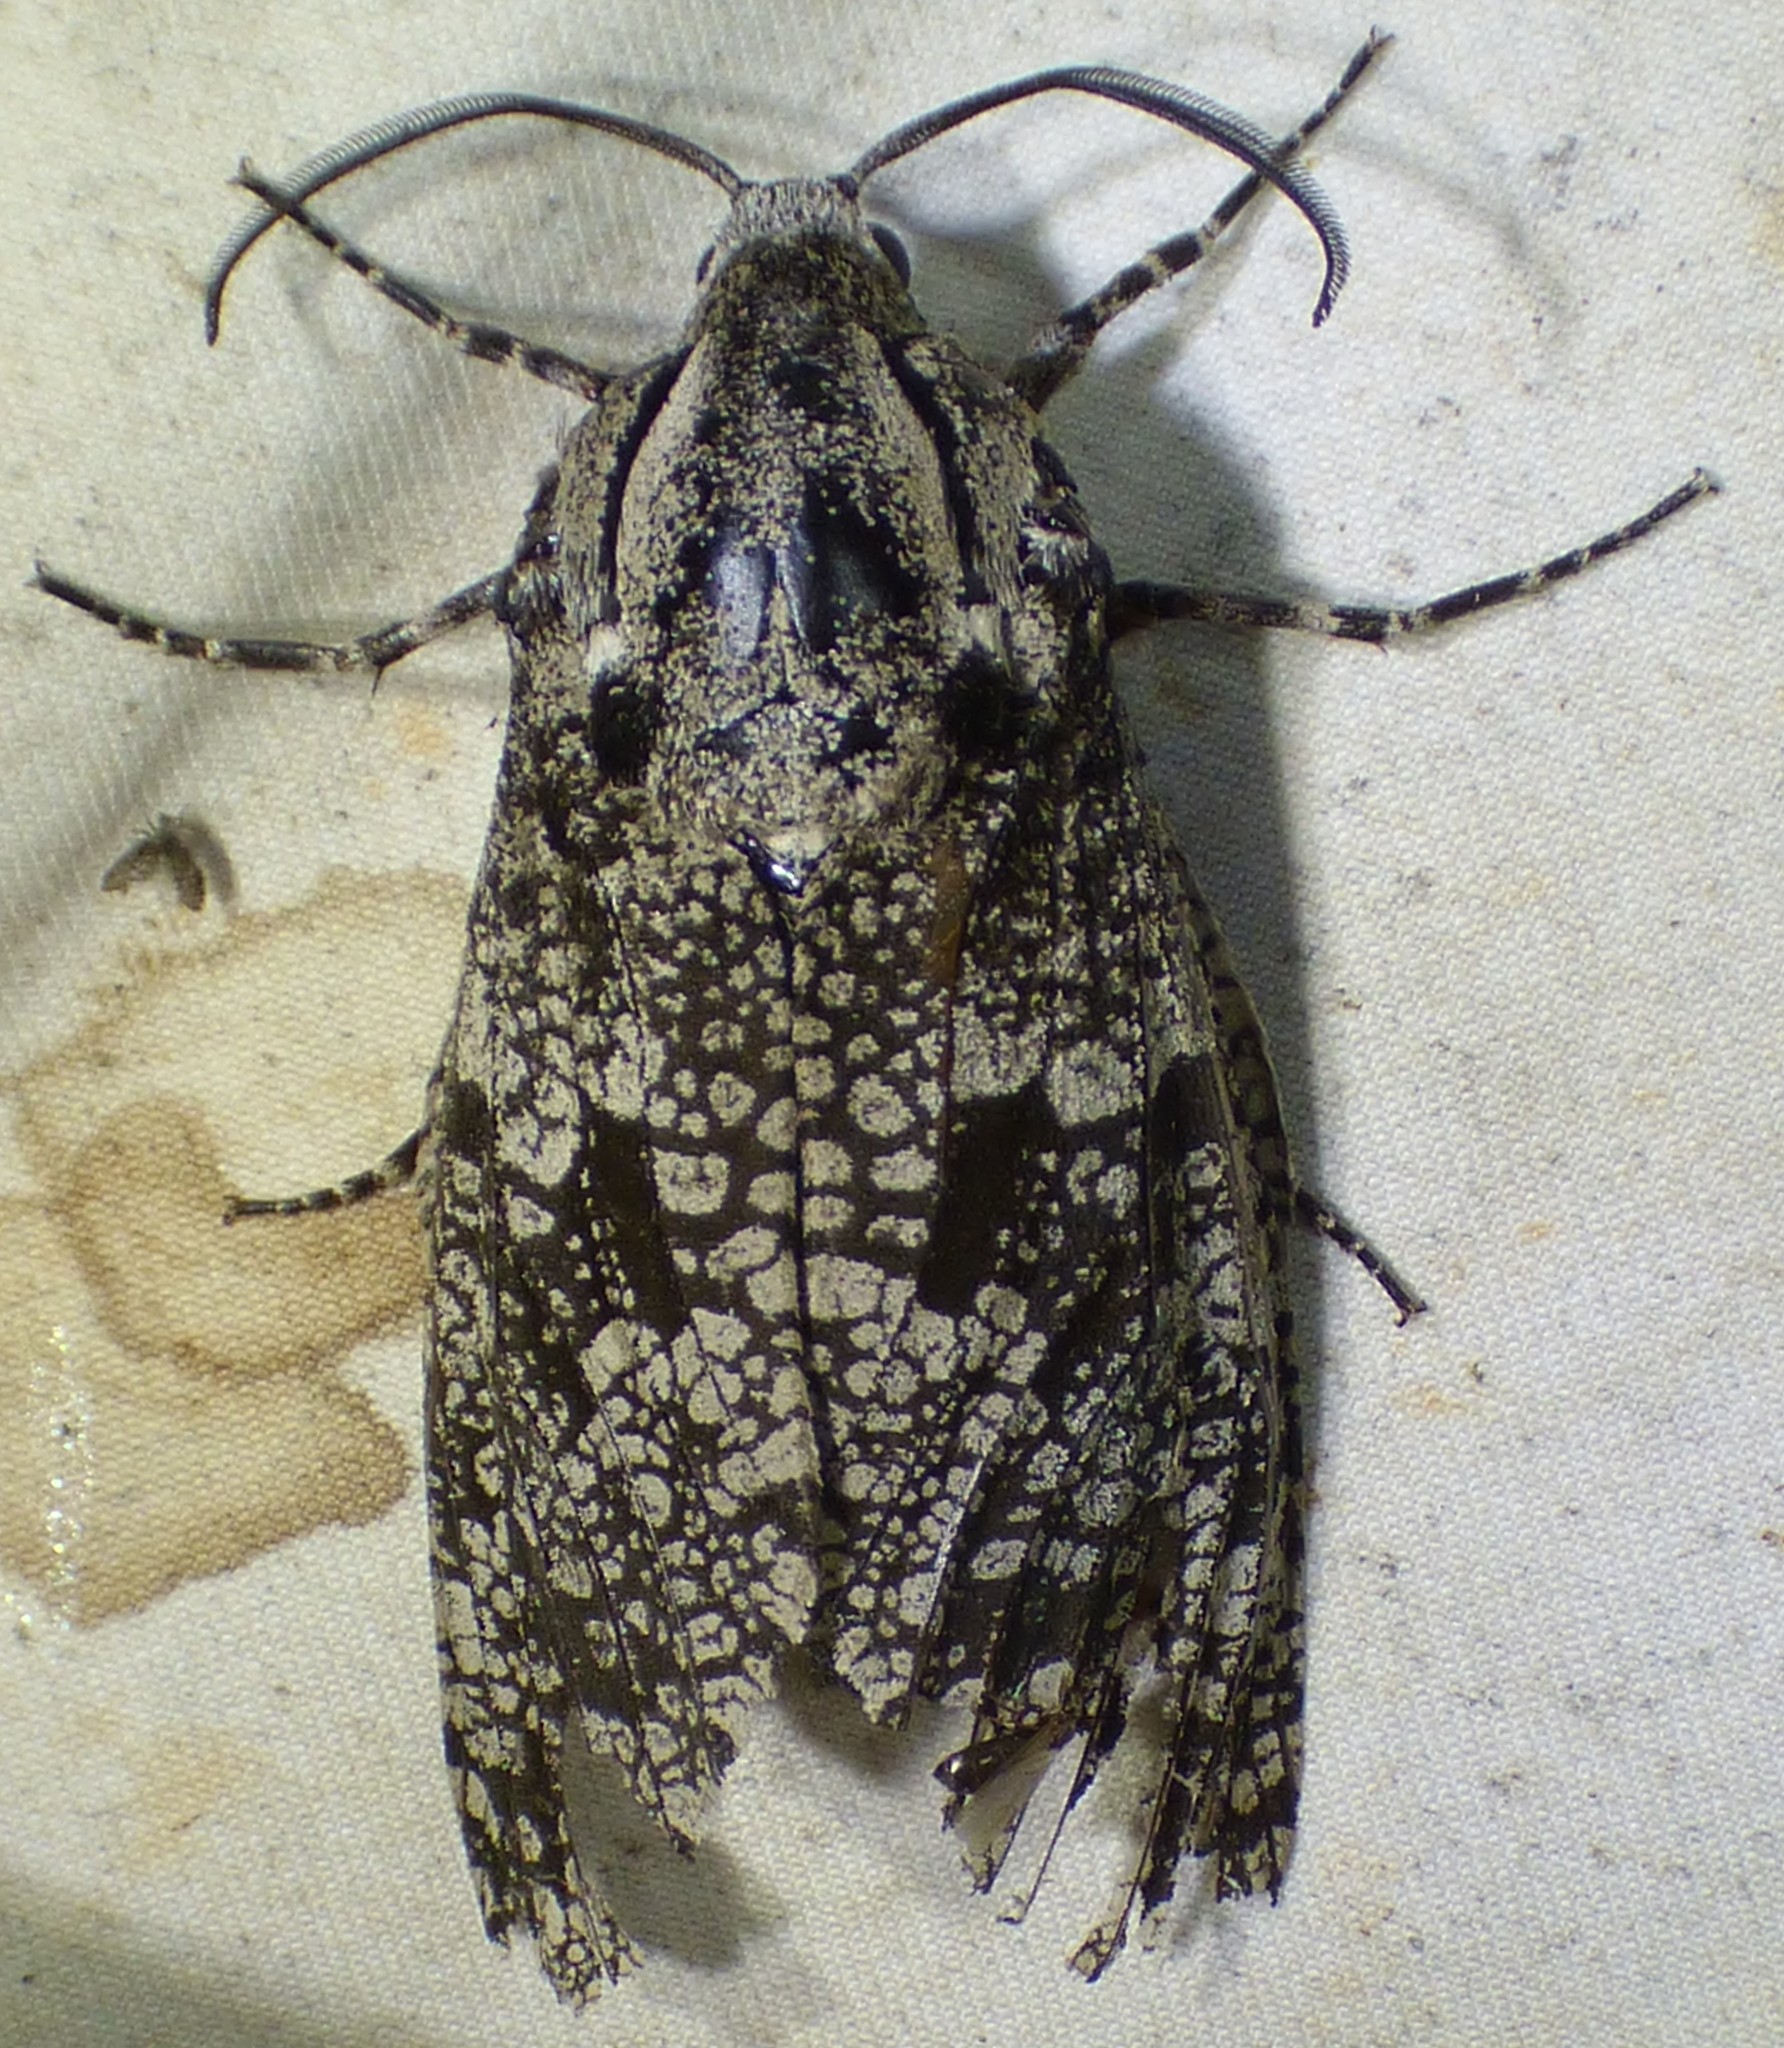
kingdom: Animalia
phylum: Arthropoda
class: Insecta
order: Lepidoptera
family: Cossidae
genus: Prionoxystus
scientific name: Prionoxystus robiniae
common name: Carpenterworm
